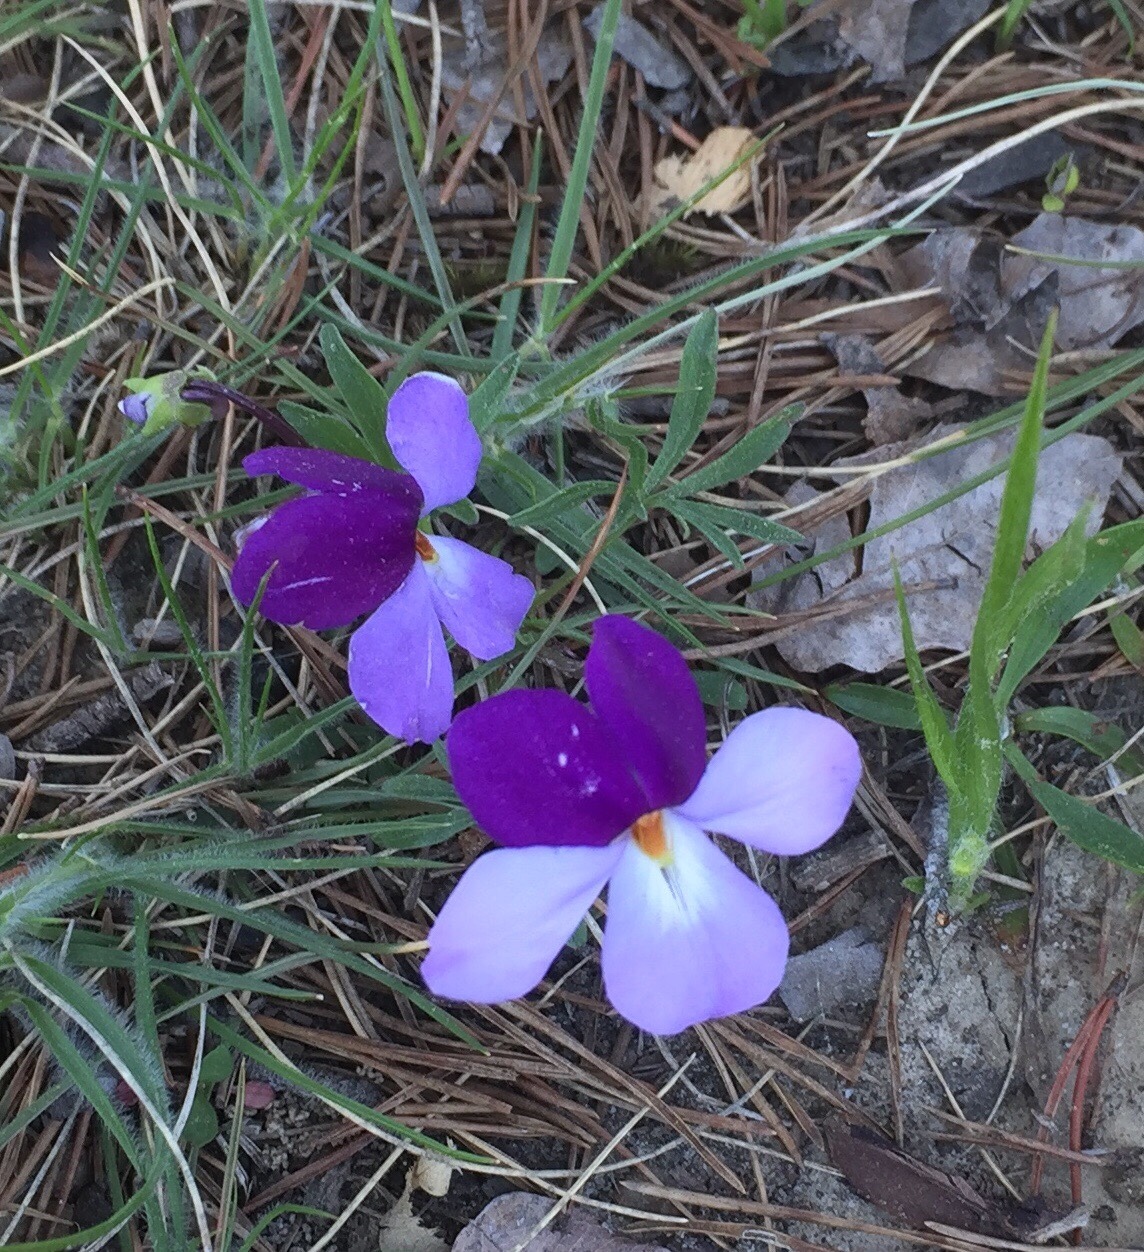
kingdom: Plantae
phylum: Tracheophyta
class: Magnoliopsida
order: Malpighiales
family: Violaceae
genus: Viola
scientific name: Viola pedata
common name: Pansy violet
